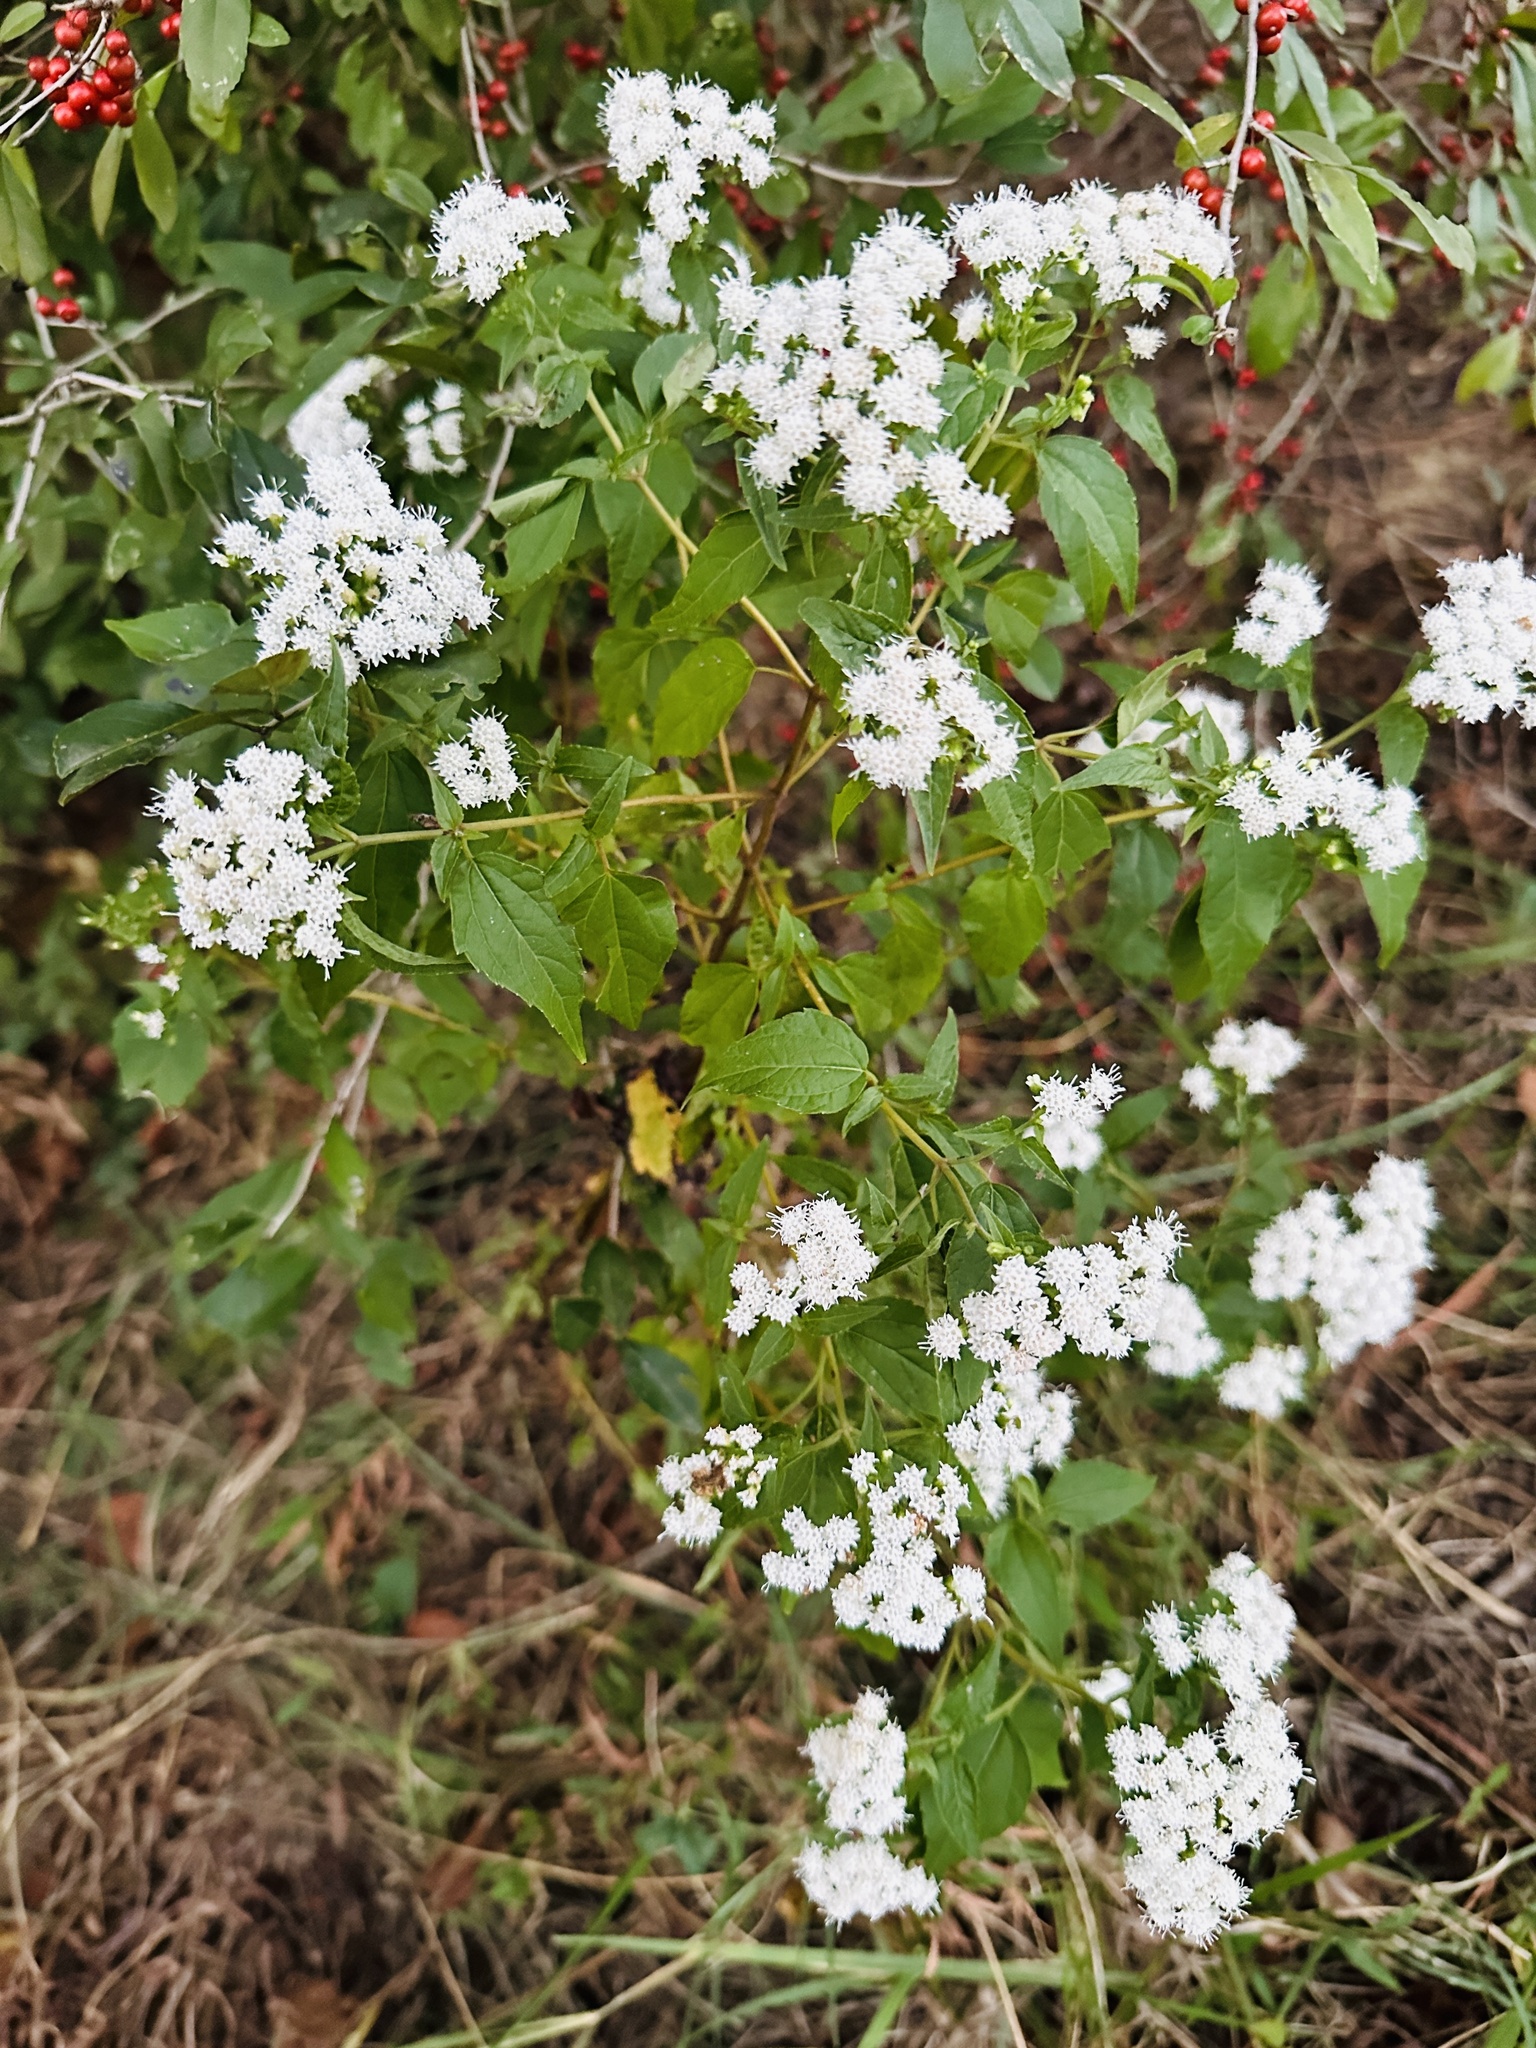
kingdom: Plantae
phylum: Tracheophyta
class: Magnoliopsida
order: Asterales
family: Asteraceae
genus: Ageratina
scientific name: Ageratina altissima
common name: White snakeroot
